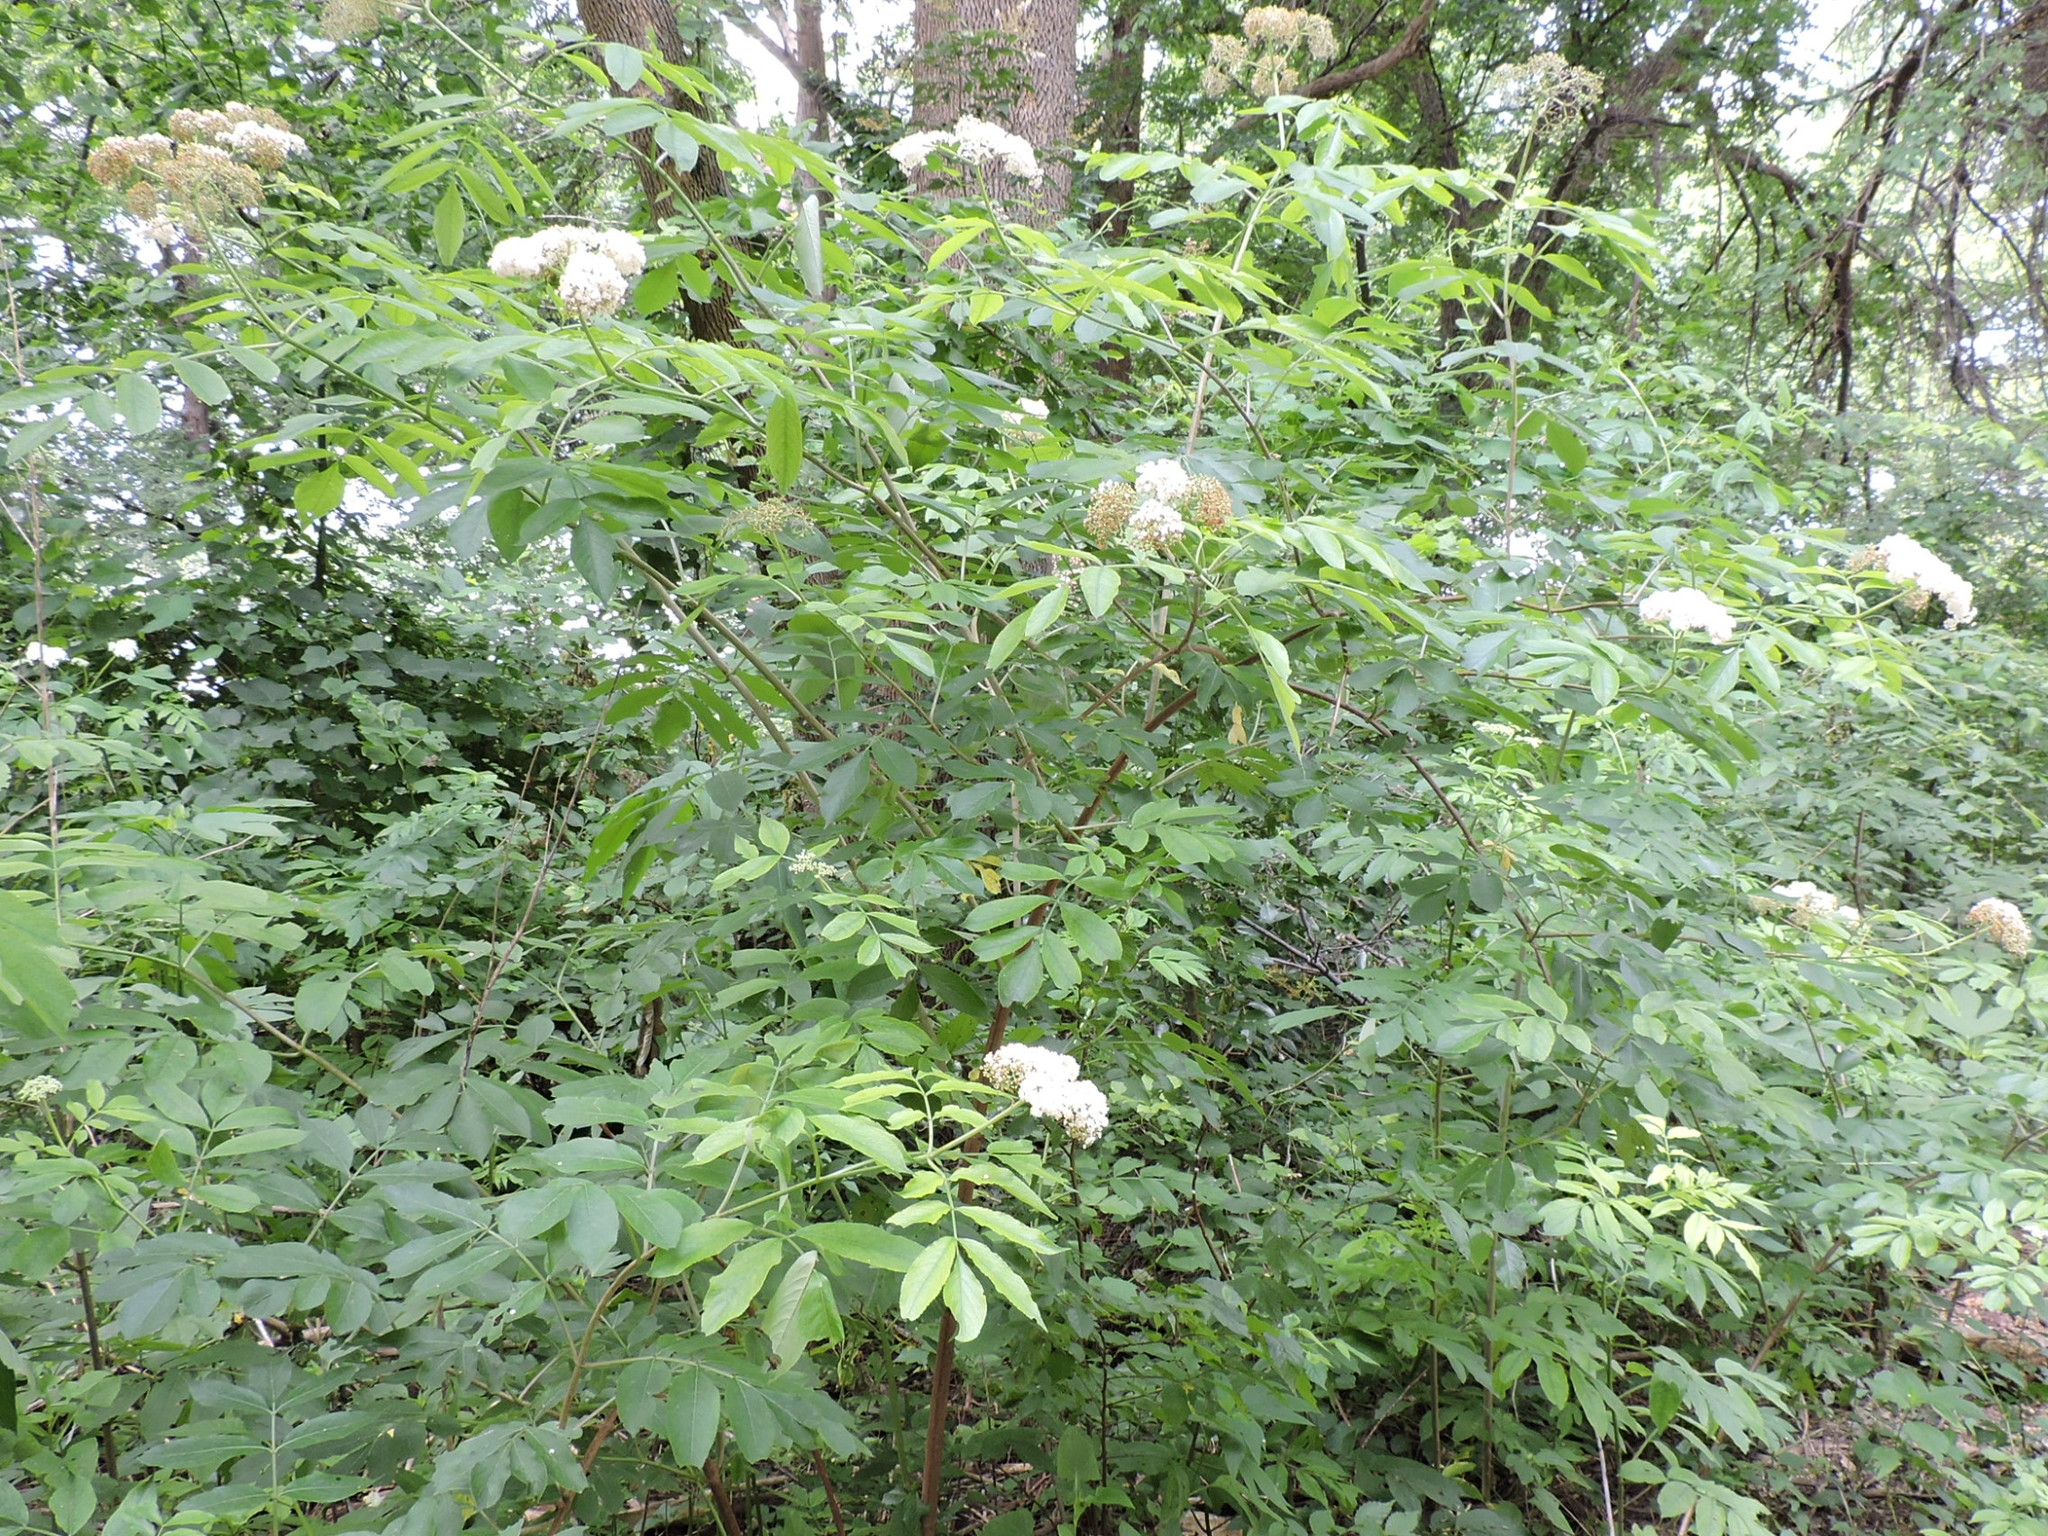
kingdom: Plantae
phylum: Tracheophyta
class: Magnoliopsida
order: Dipsacales
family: Viburnaceae
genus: Sambucus
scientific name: Sambucus canadensis
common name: American elder
